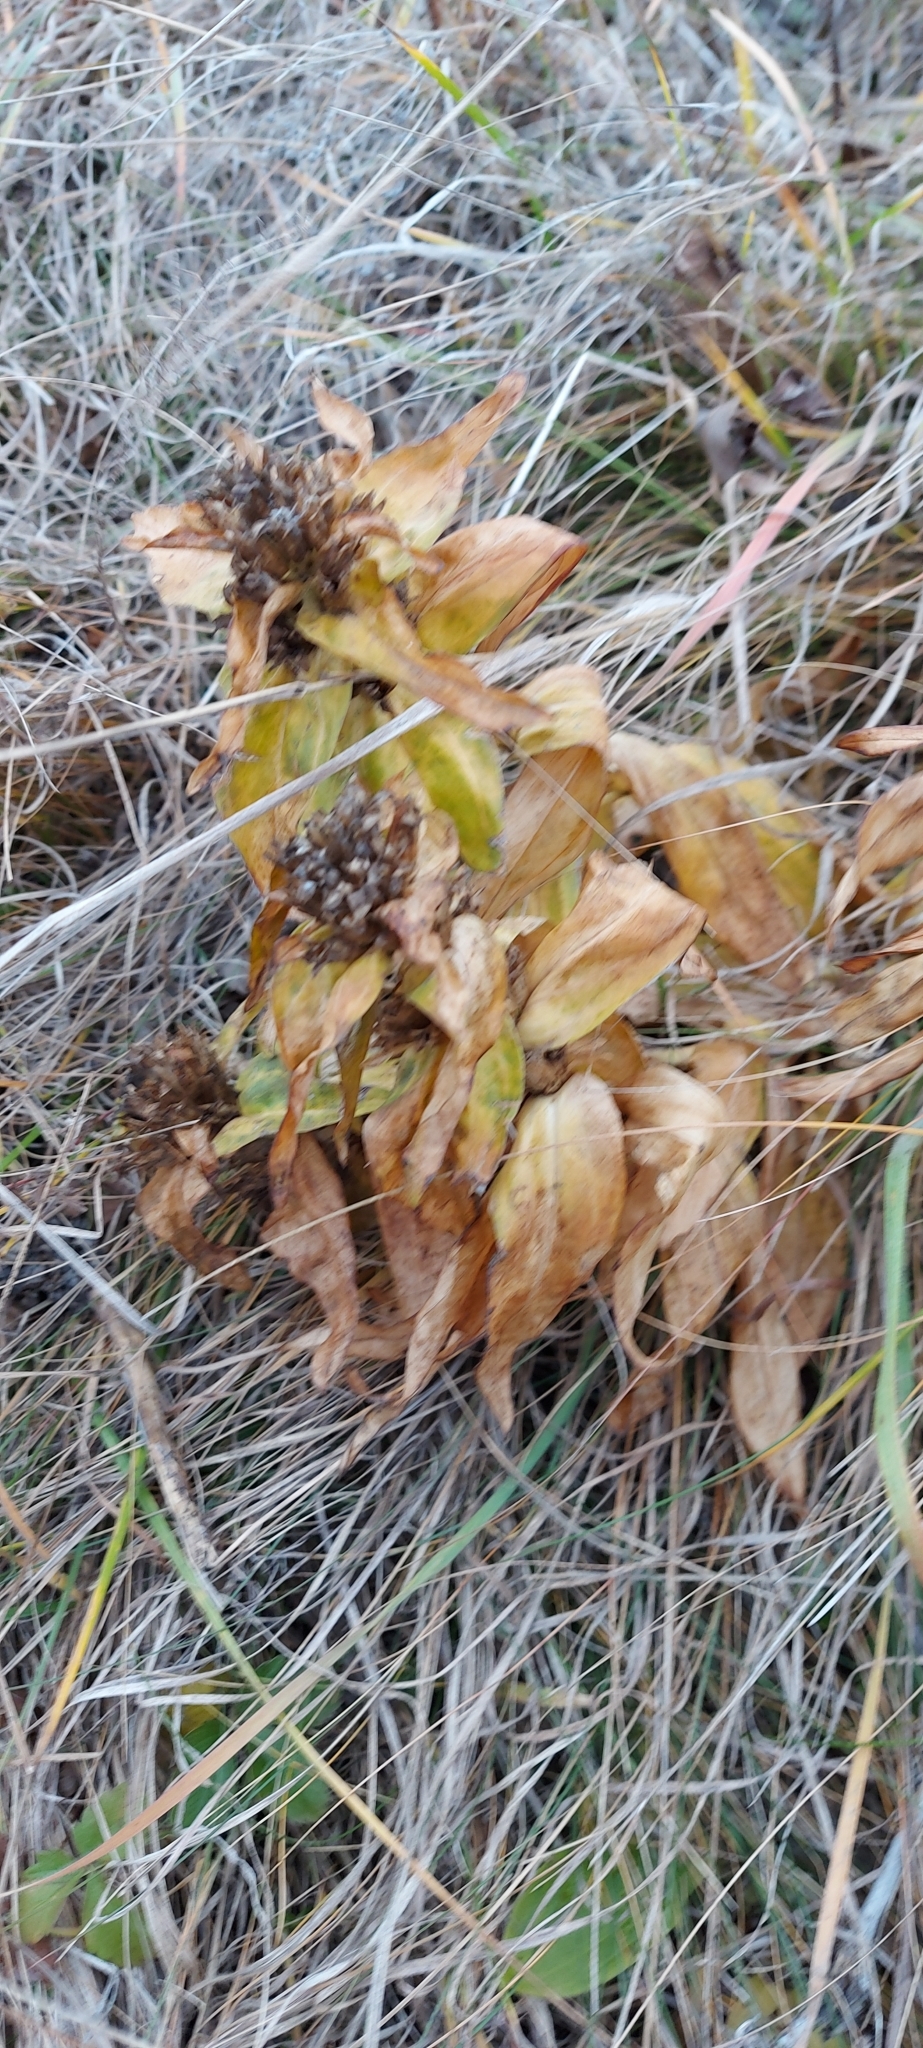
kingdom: Plantae
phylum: Tracheophyta
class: Magnoliopsida
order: Gentianales
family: Gentianaceae
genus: Gentiana
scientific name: Gentiana cruciata
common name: Cross gentian
